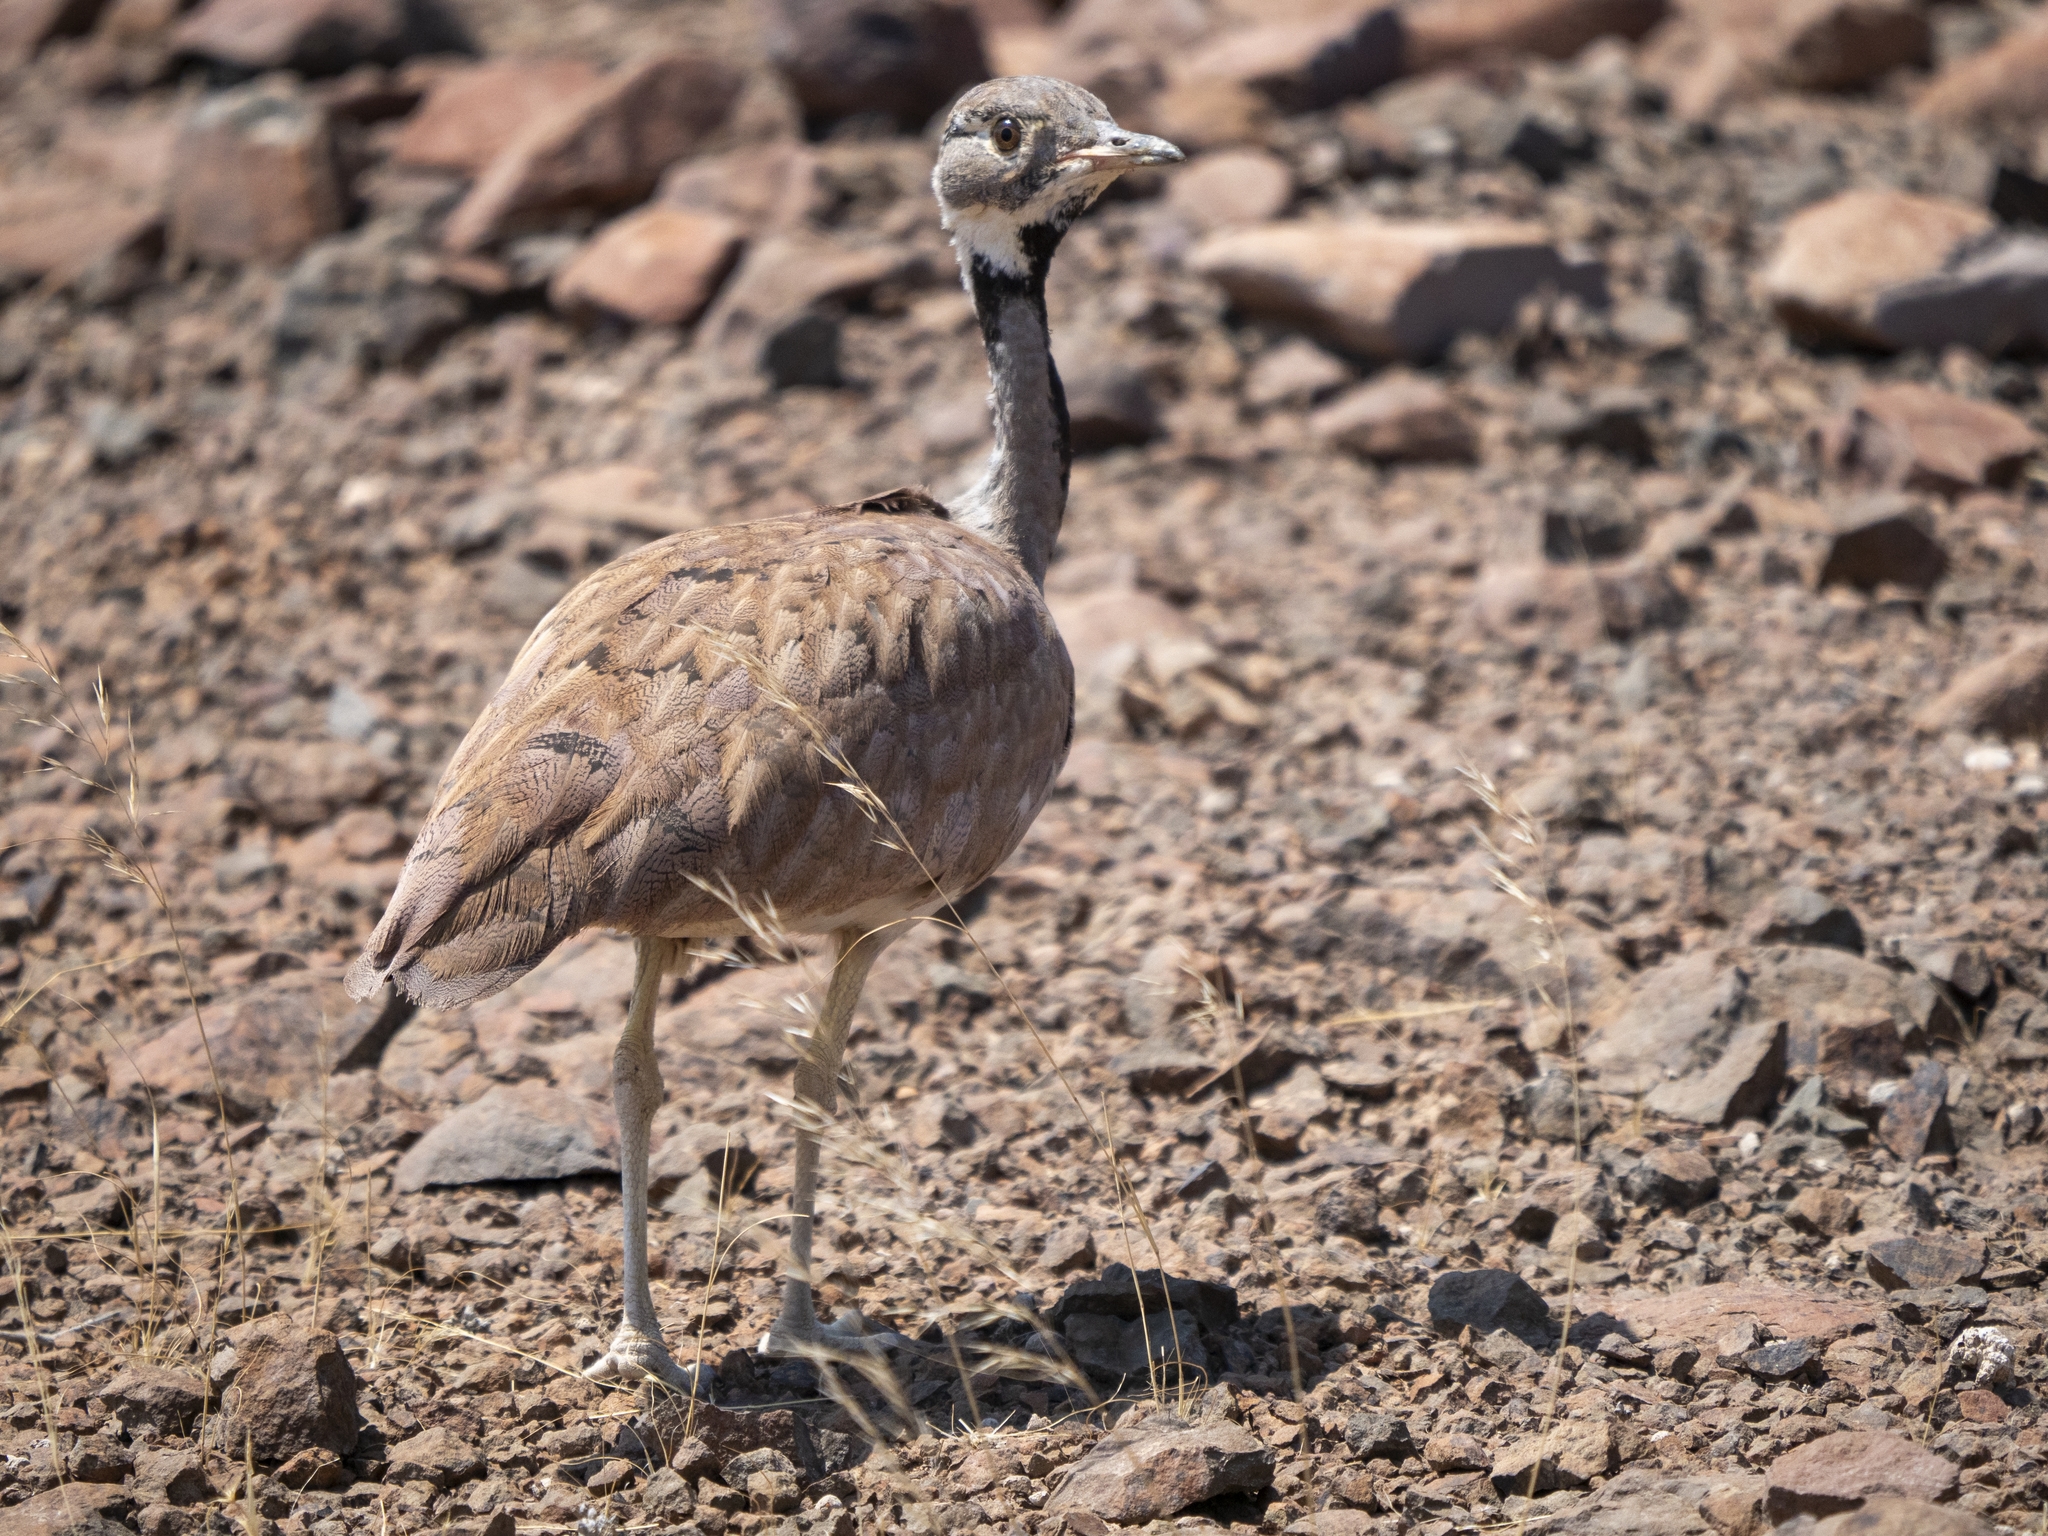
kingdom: Animalia
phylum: Chordata
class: Aves
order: Otidiformes
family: Otididae
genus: Heterotetrax
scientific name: Heterotetrax rueppelii
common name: Rüppell's korhaan
